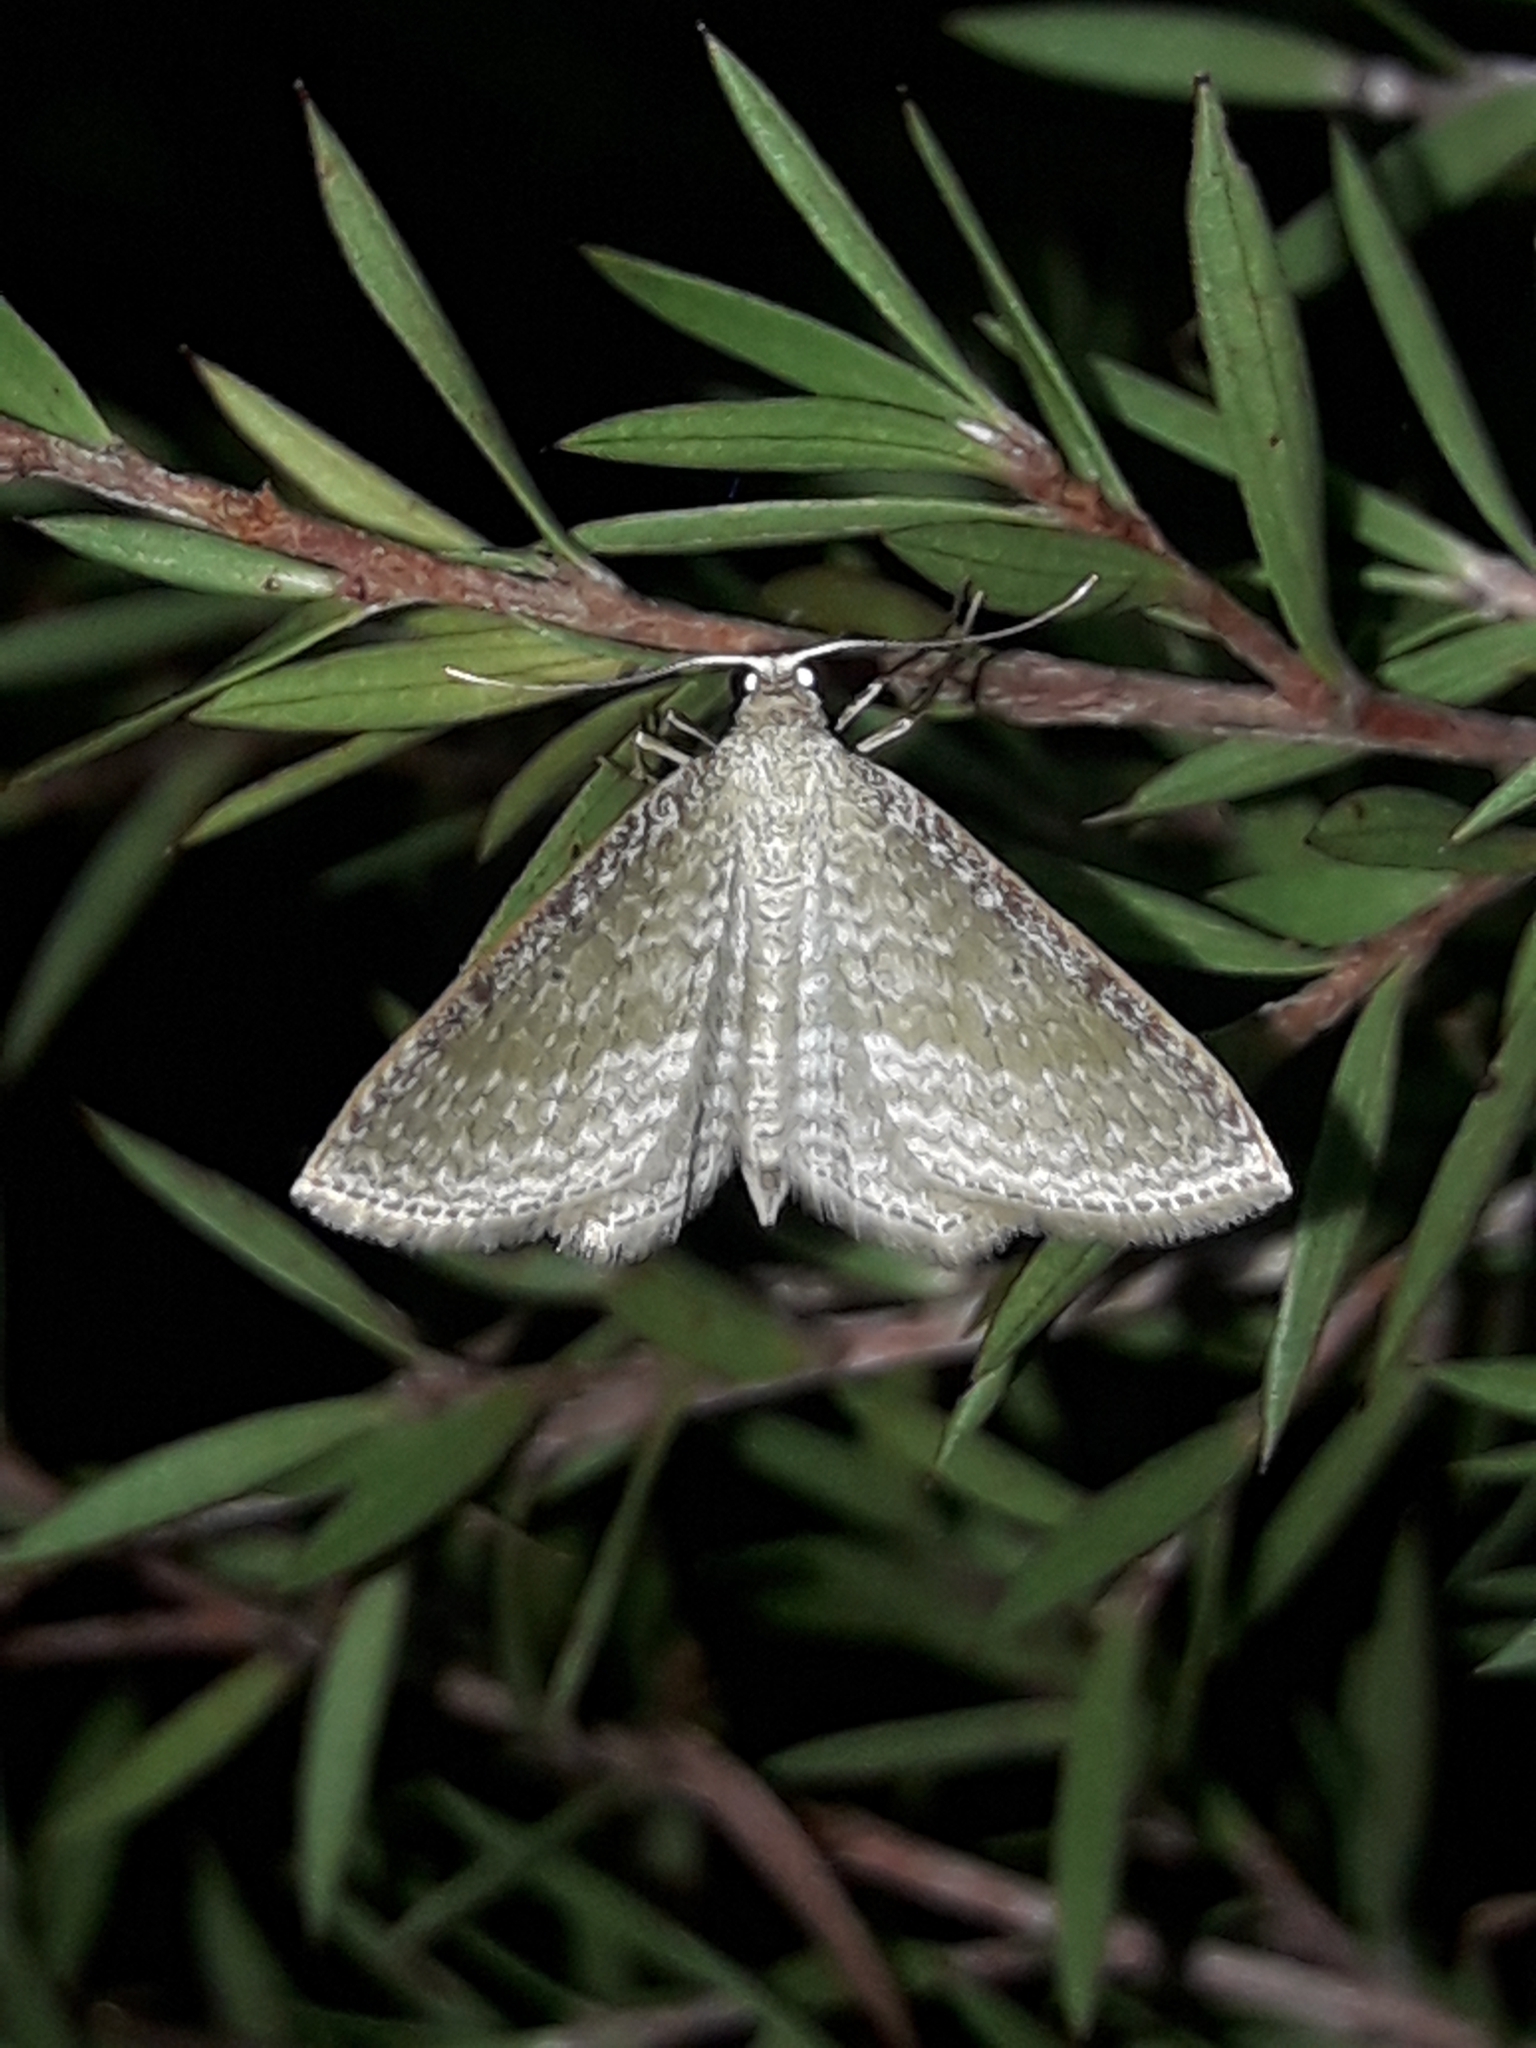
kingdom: Animalia
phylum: Arthropoda
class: Insecta
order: Lepidoptera
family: Geometridae
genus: Poecilasthena
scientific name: Poecilasthena pulchraria
